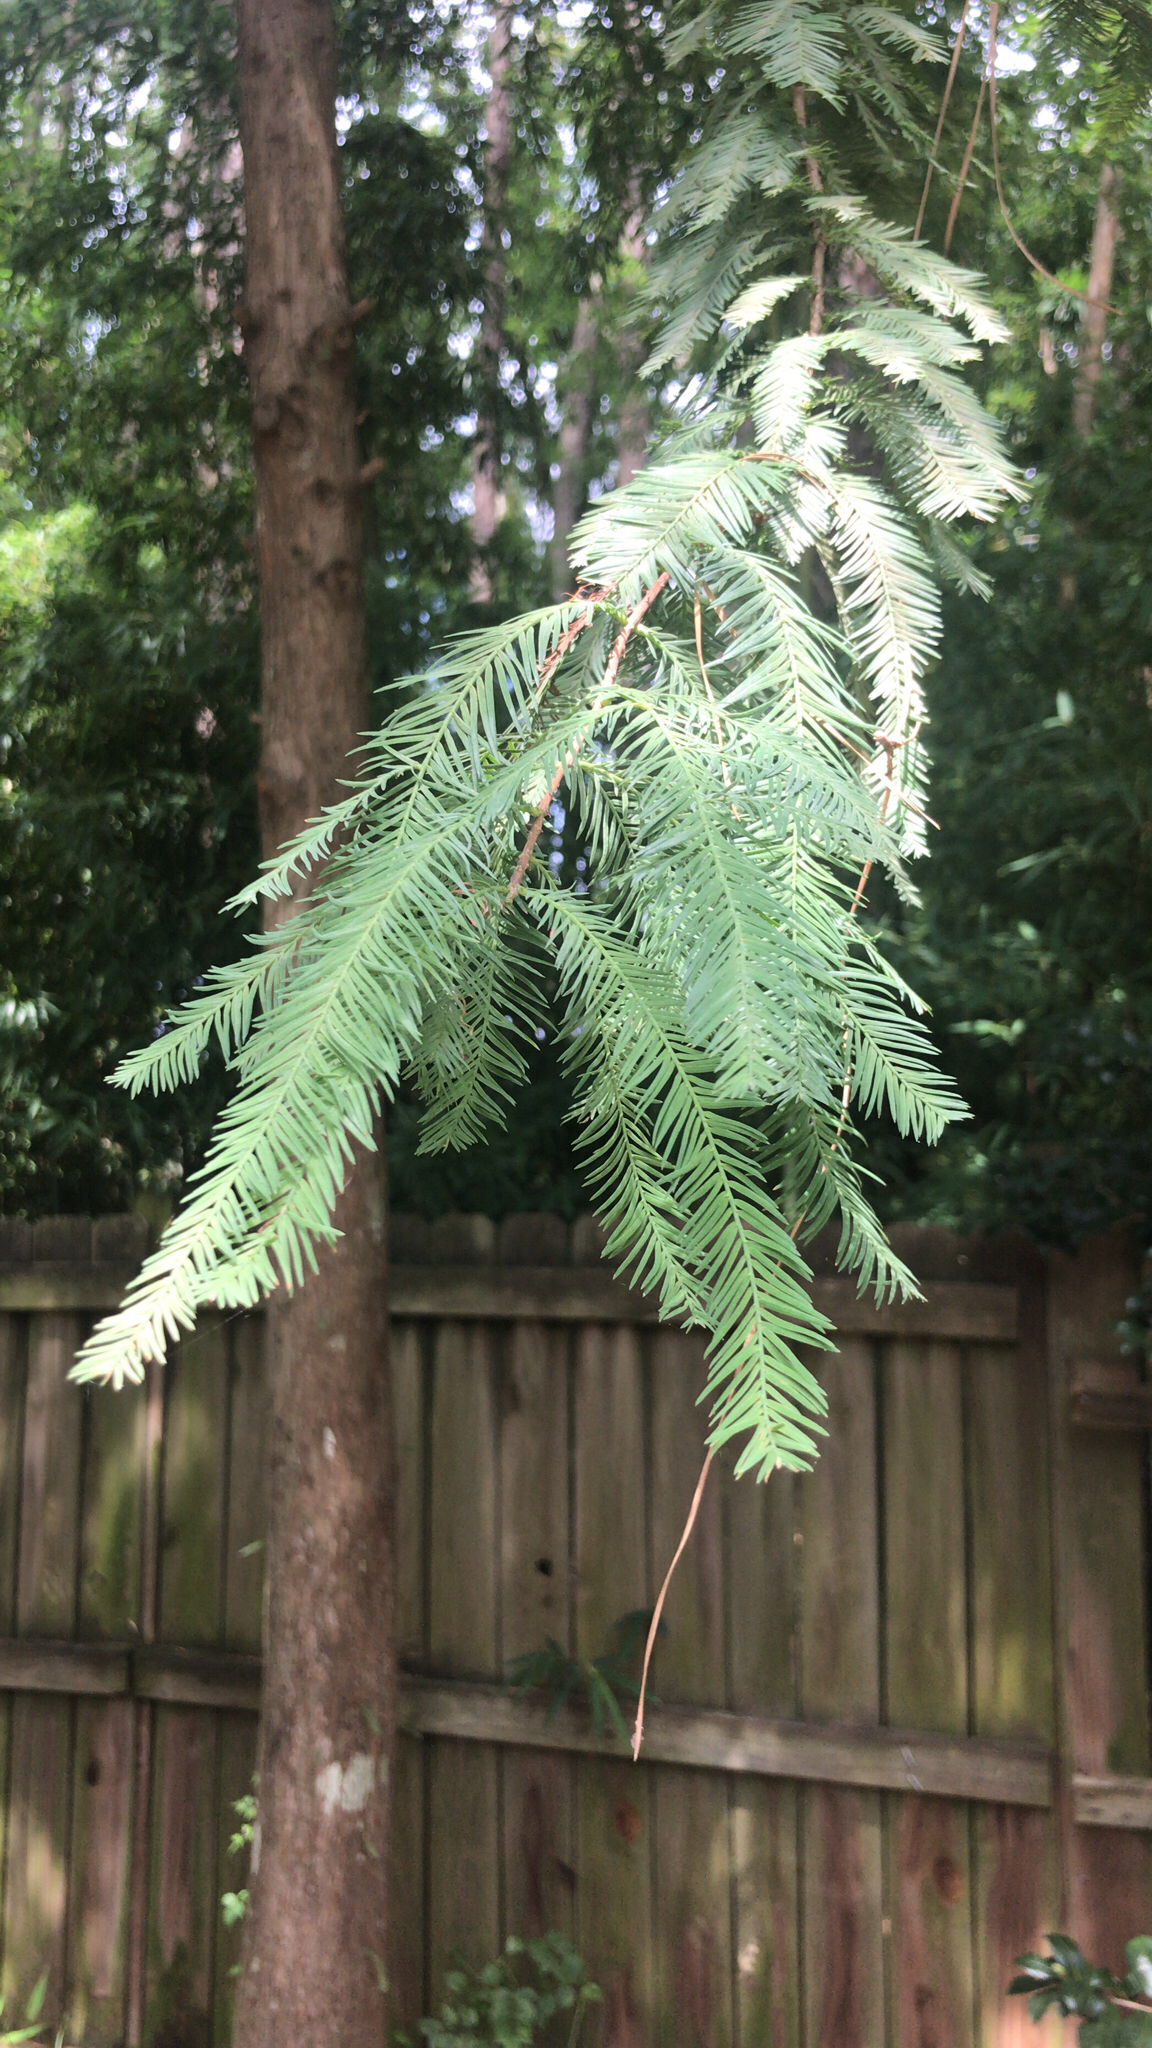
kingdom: Plantae
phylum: Tracheophyta
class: Pinopsida
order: Pinales
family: Cupressaceae
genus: Taxodium
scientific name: Taxodium distichum
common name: Bald cypress
